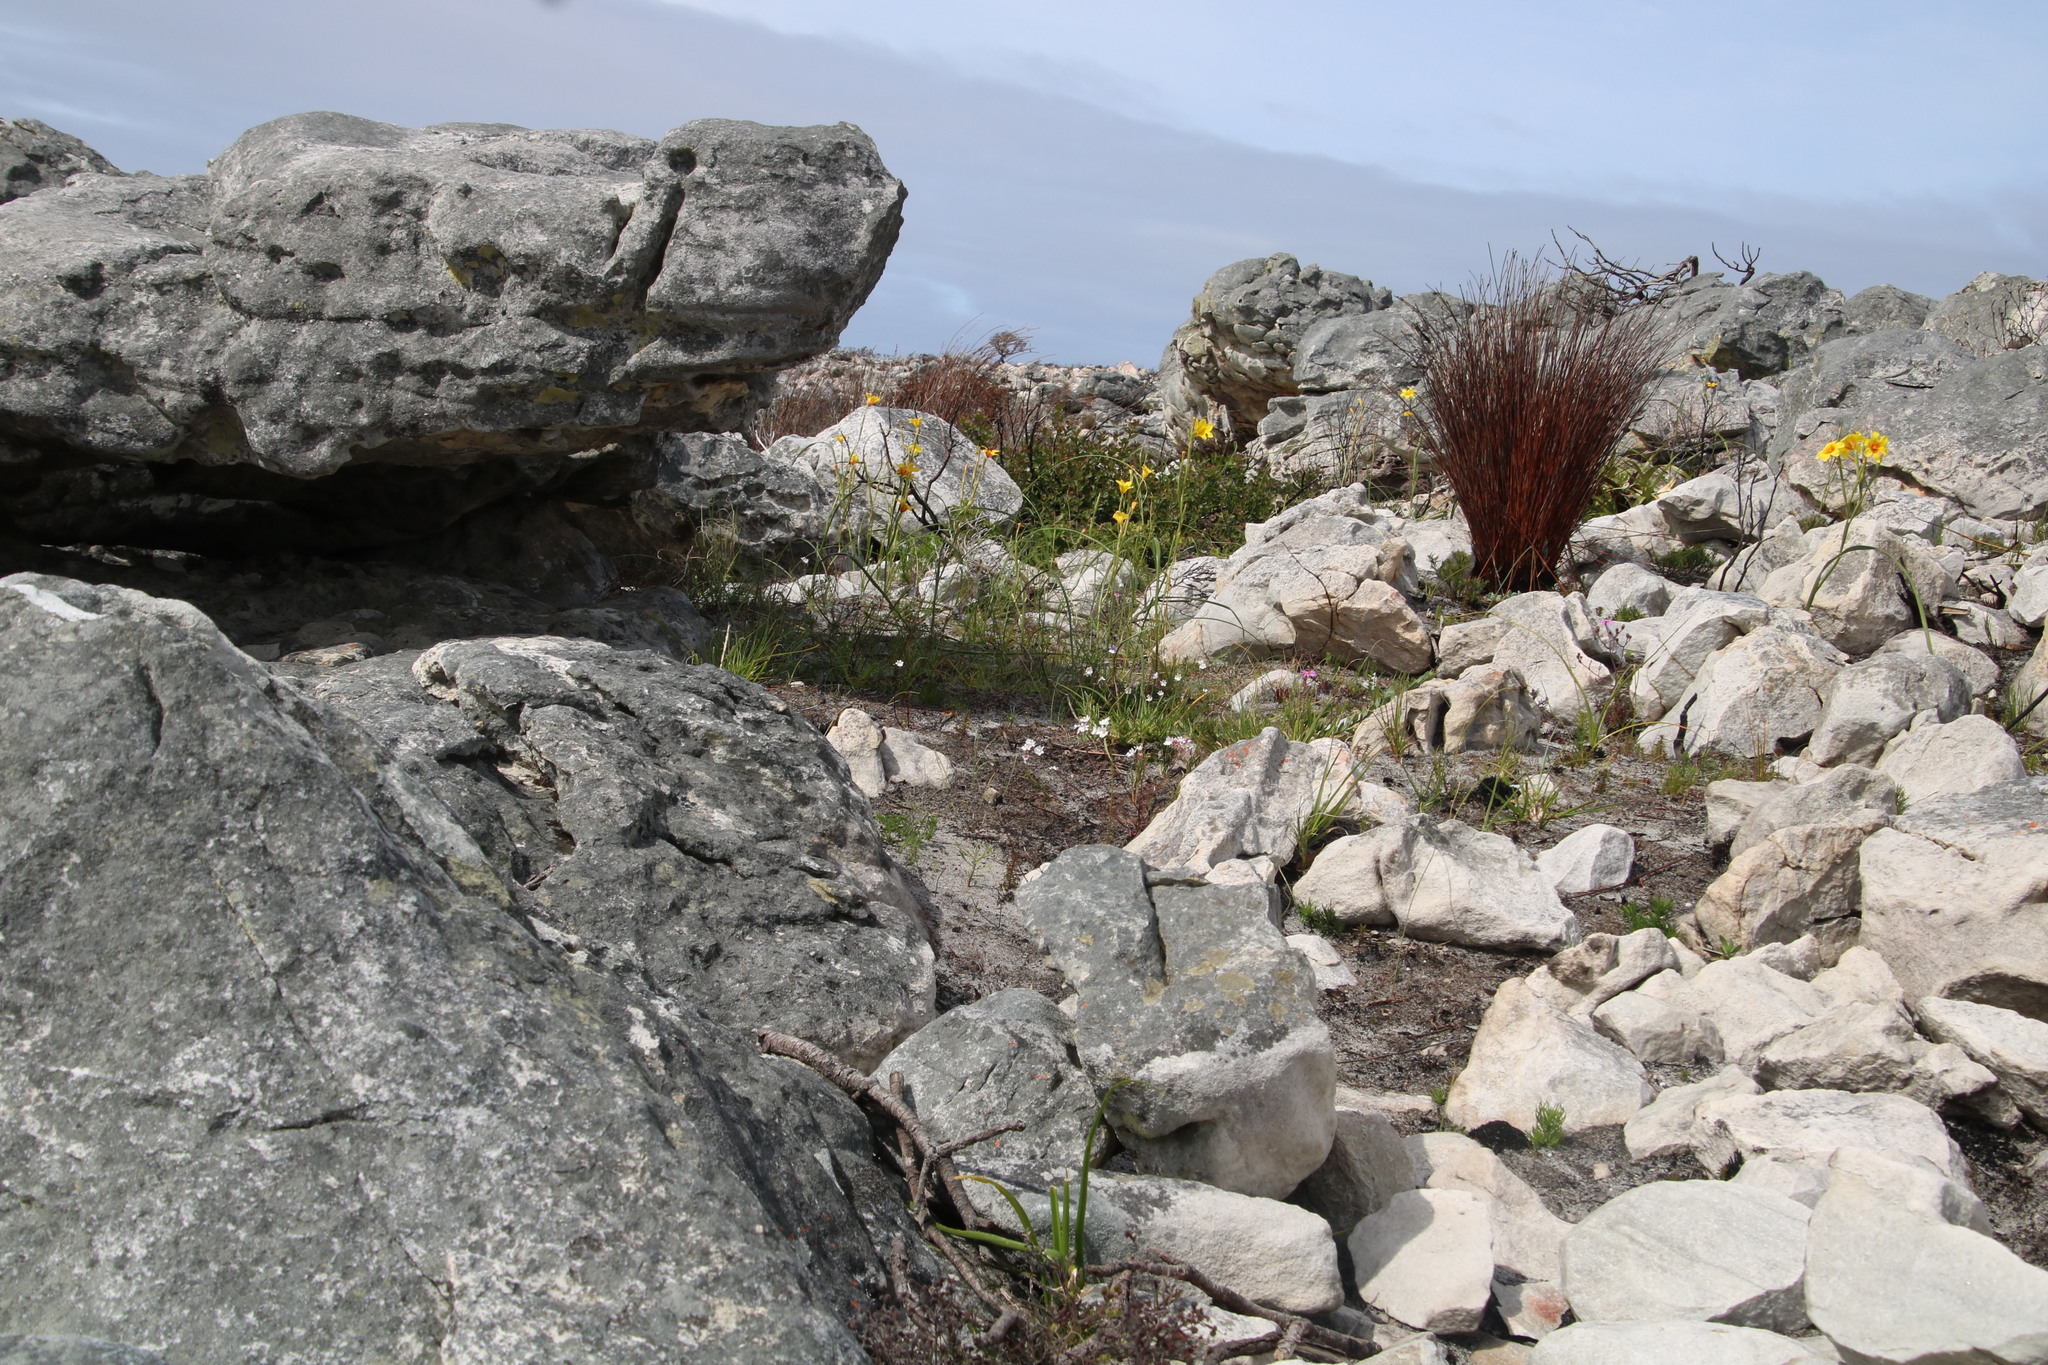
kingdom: Plantae
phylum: Tracheophyta
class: Liliopsida
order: Asparagales
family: Iridaceae
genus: Moraea
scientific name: Moraea ochroleuca
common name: Red tulp
